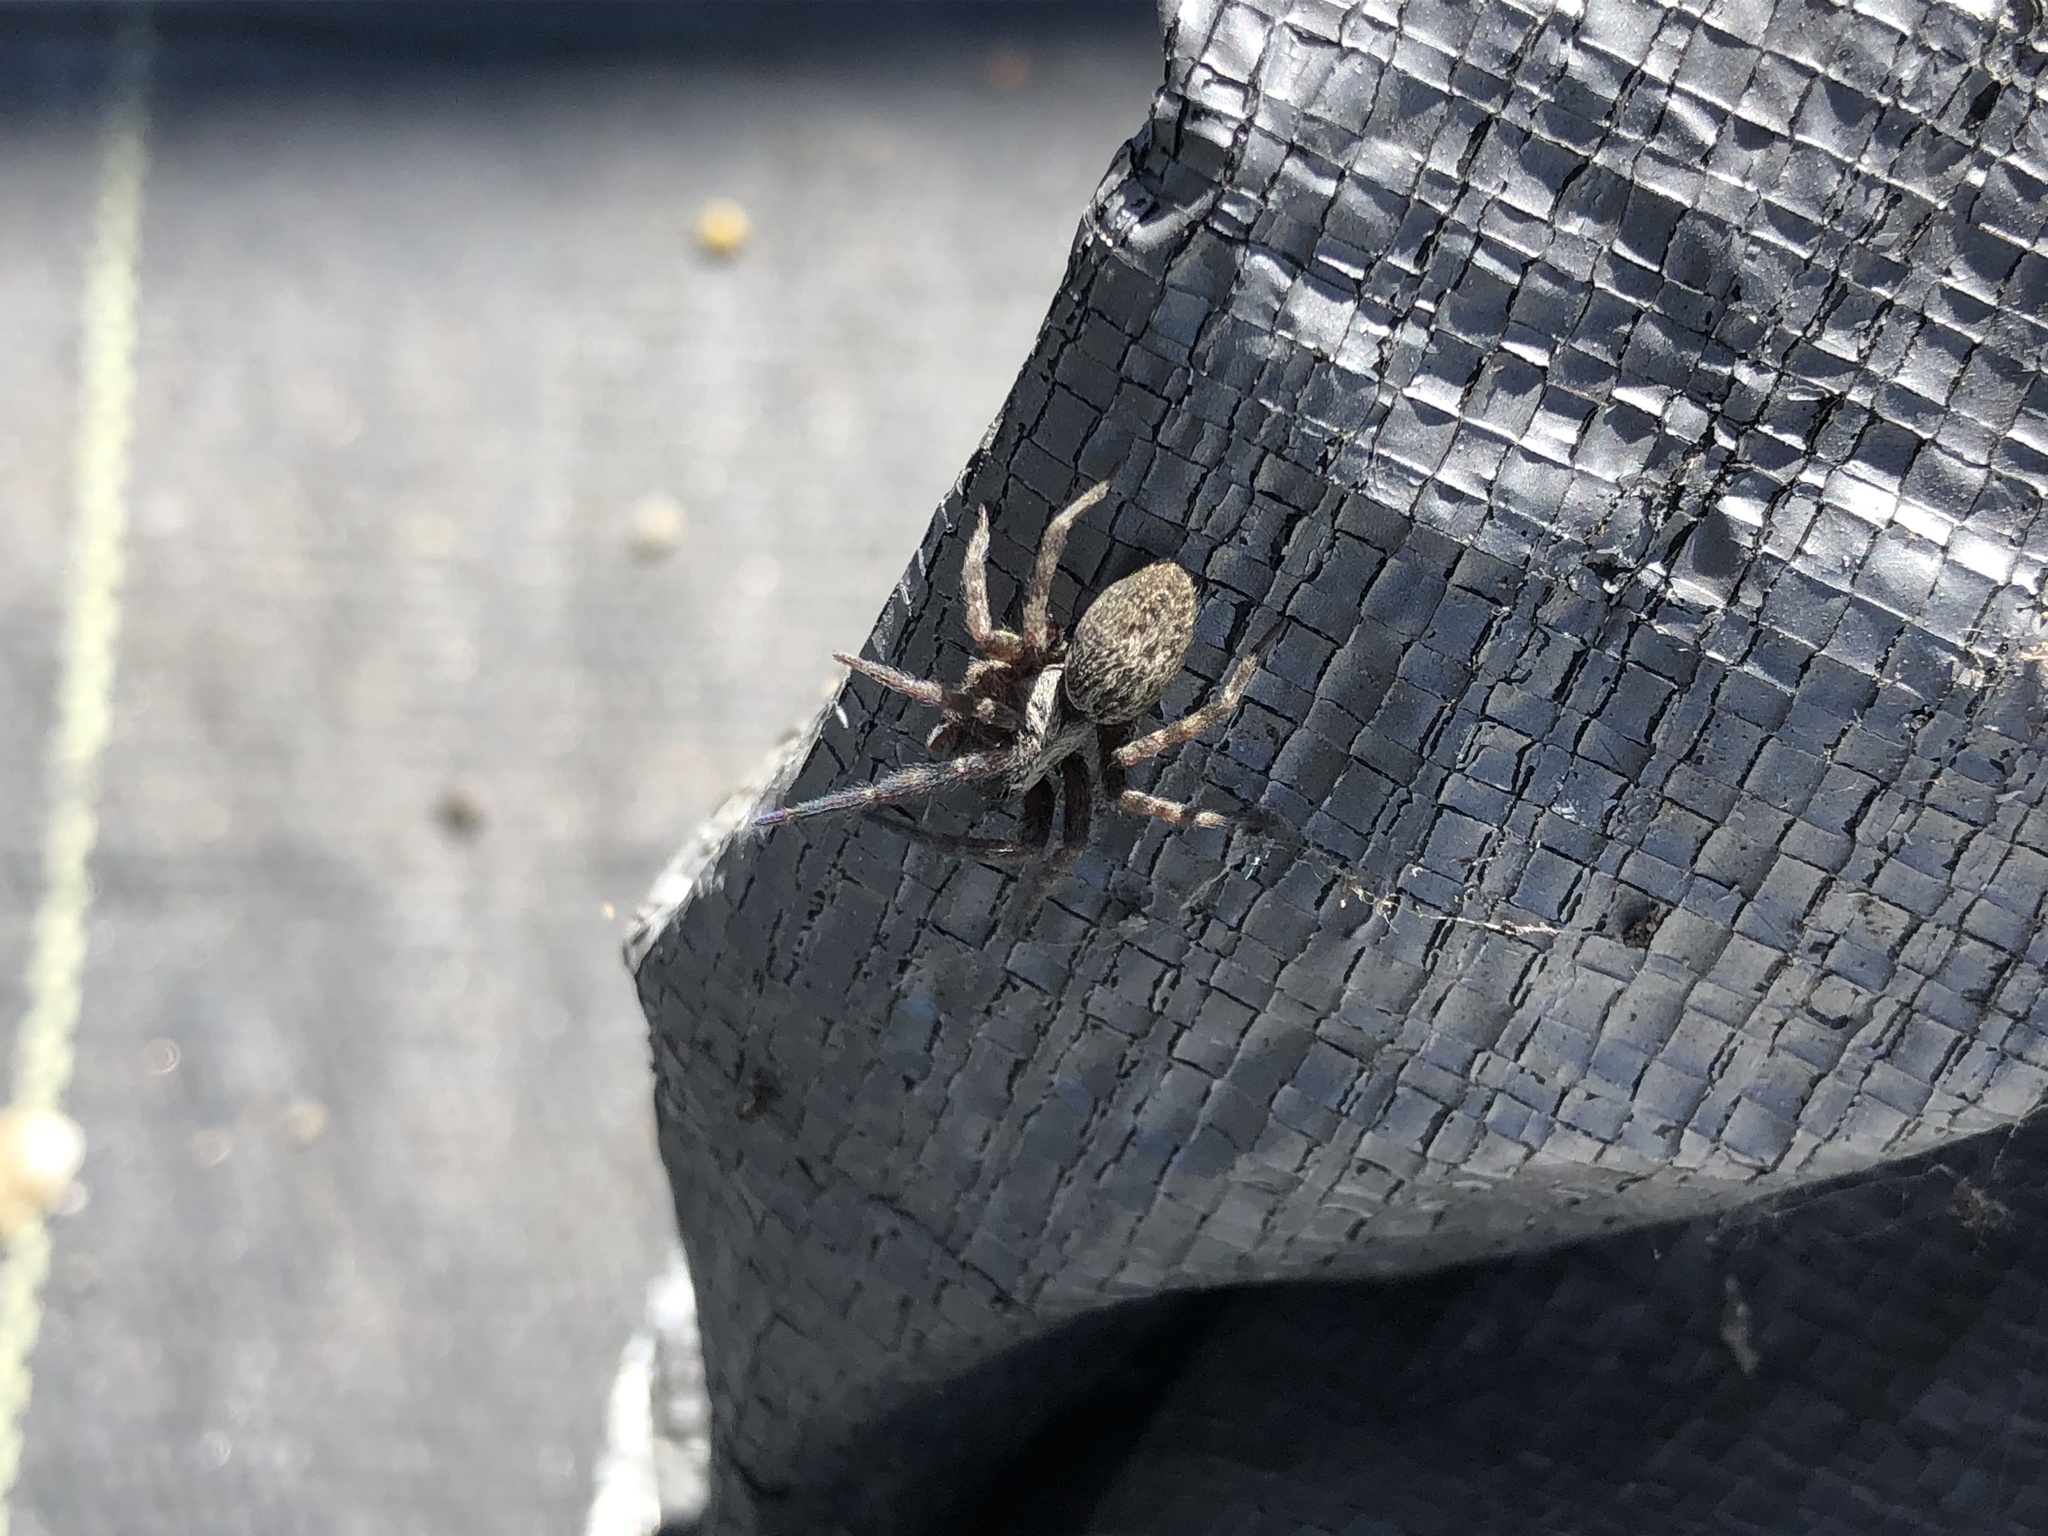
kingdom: Animalia
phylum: Arthropoda
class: Arachnida
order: Araneae
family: Desidae
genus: Badumna
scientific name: Badumna longinqua
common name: Gray house spider
